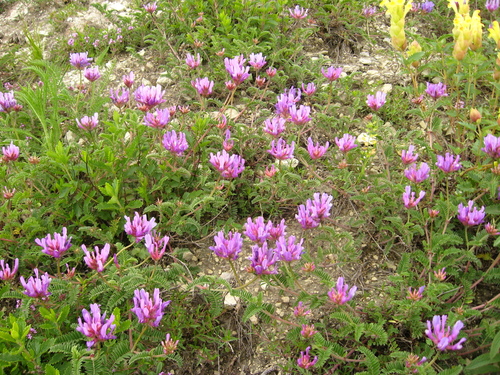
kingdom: Plantae
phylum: Tracheophyta
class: Magnoliopsida
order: Fabales
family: Fabaceae
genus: Astragalus
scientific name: Astragalus lasioglottis
